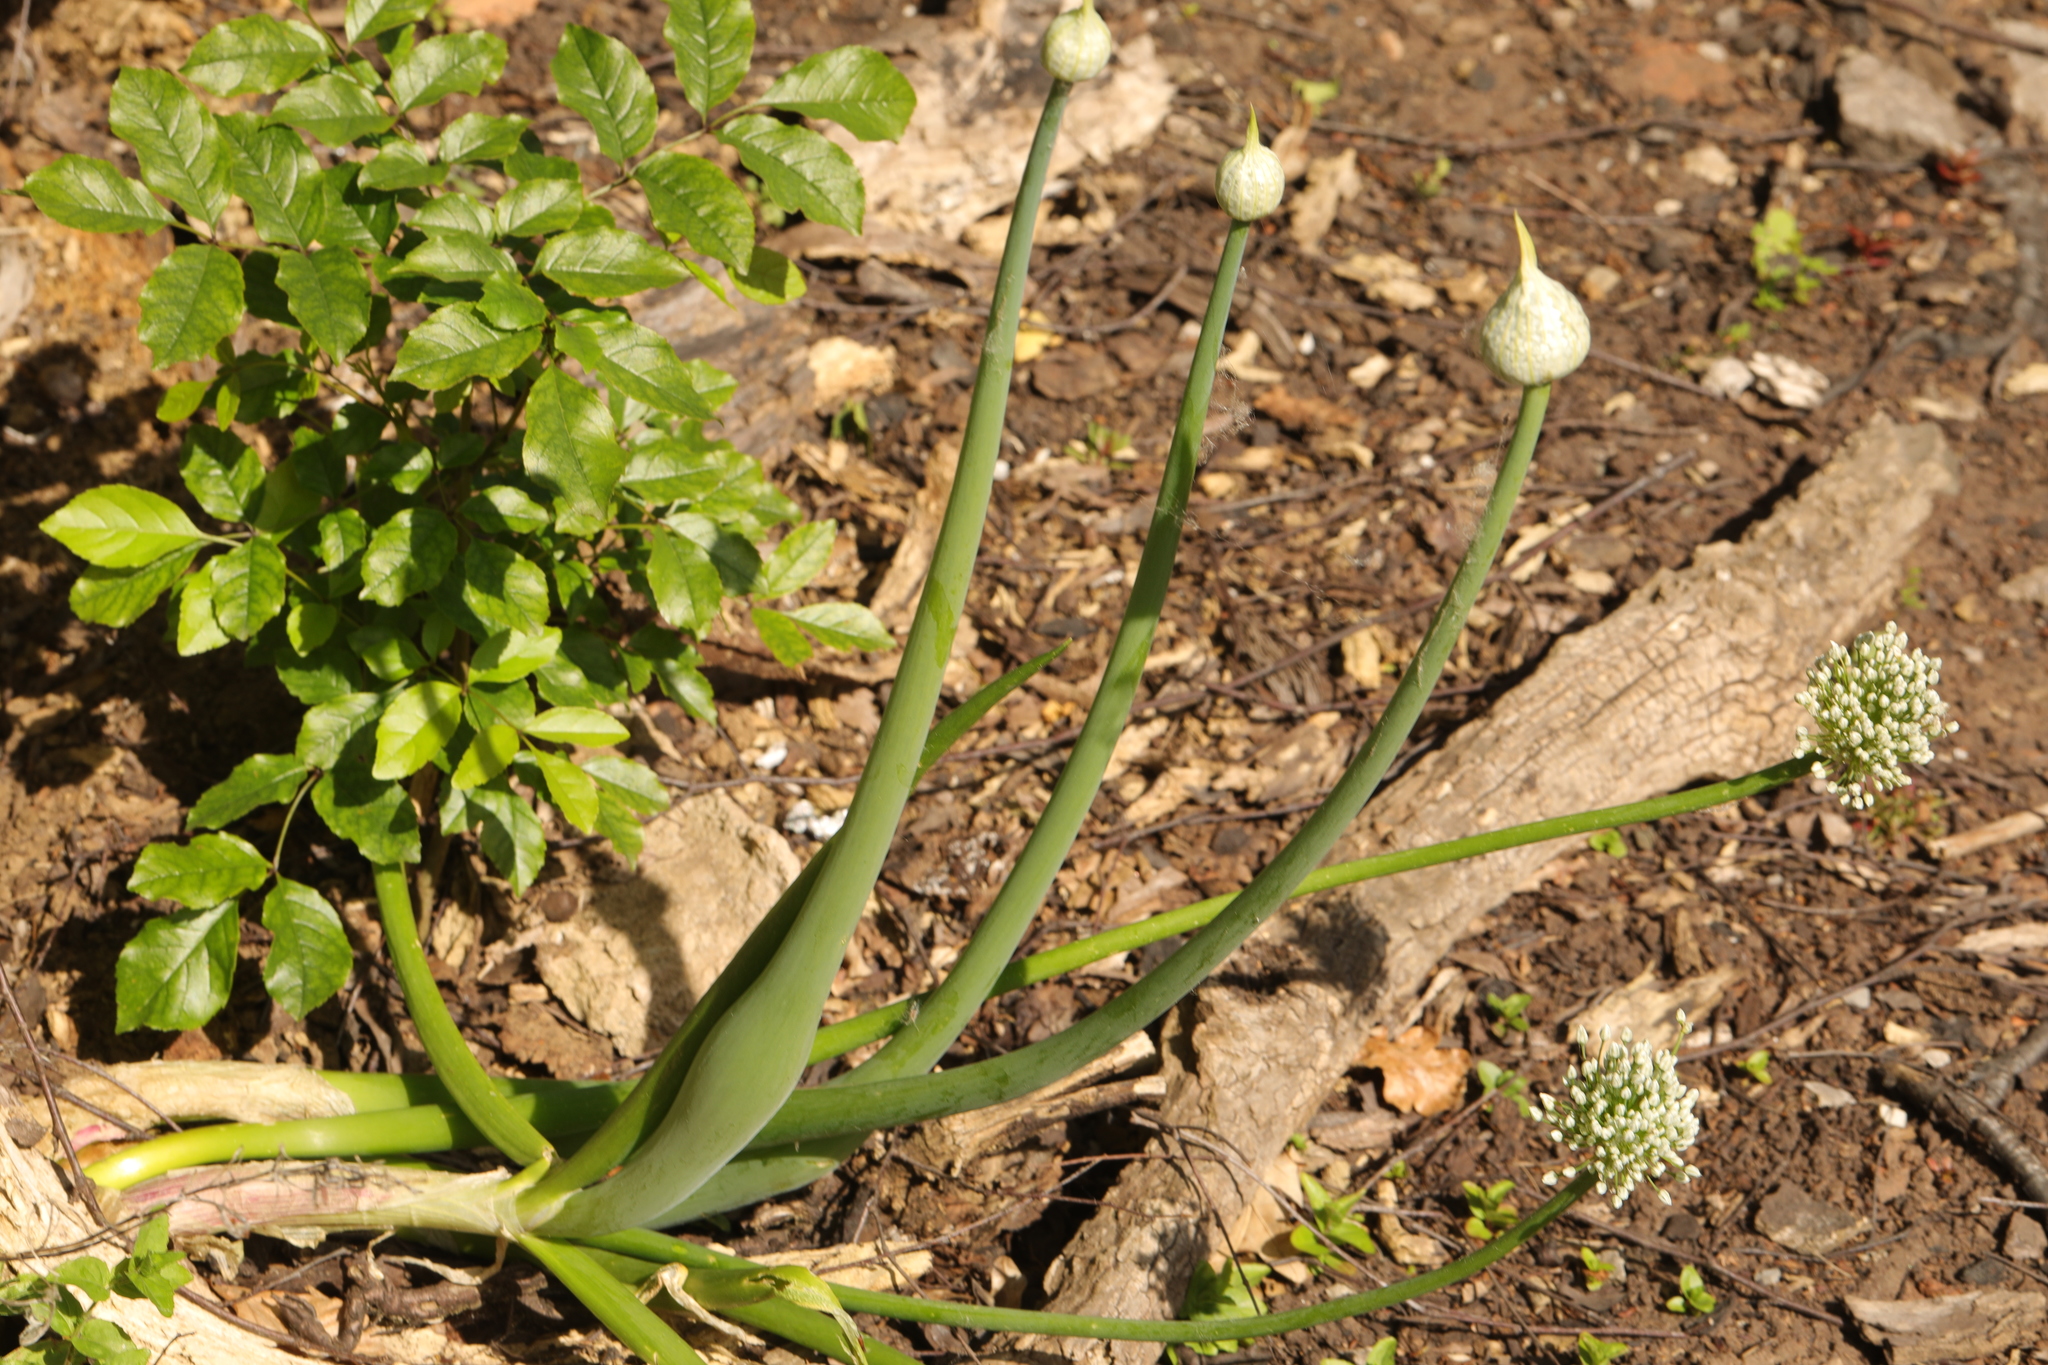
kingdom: Plantae
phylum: Tracheophyta
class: Liliopsida
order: Asparagales
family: Amaryllidaceae
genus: Allium
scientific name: Allium cepa
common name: Onion
